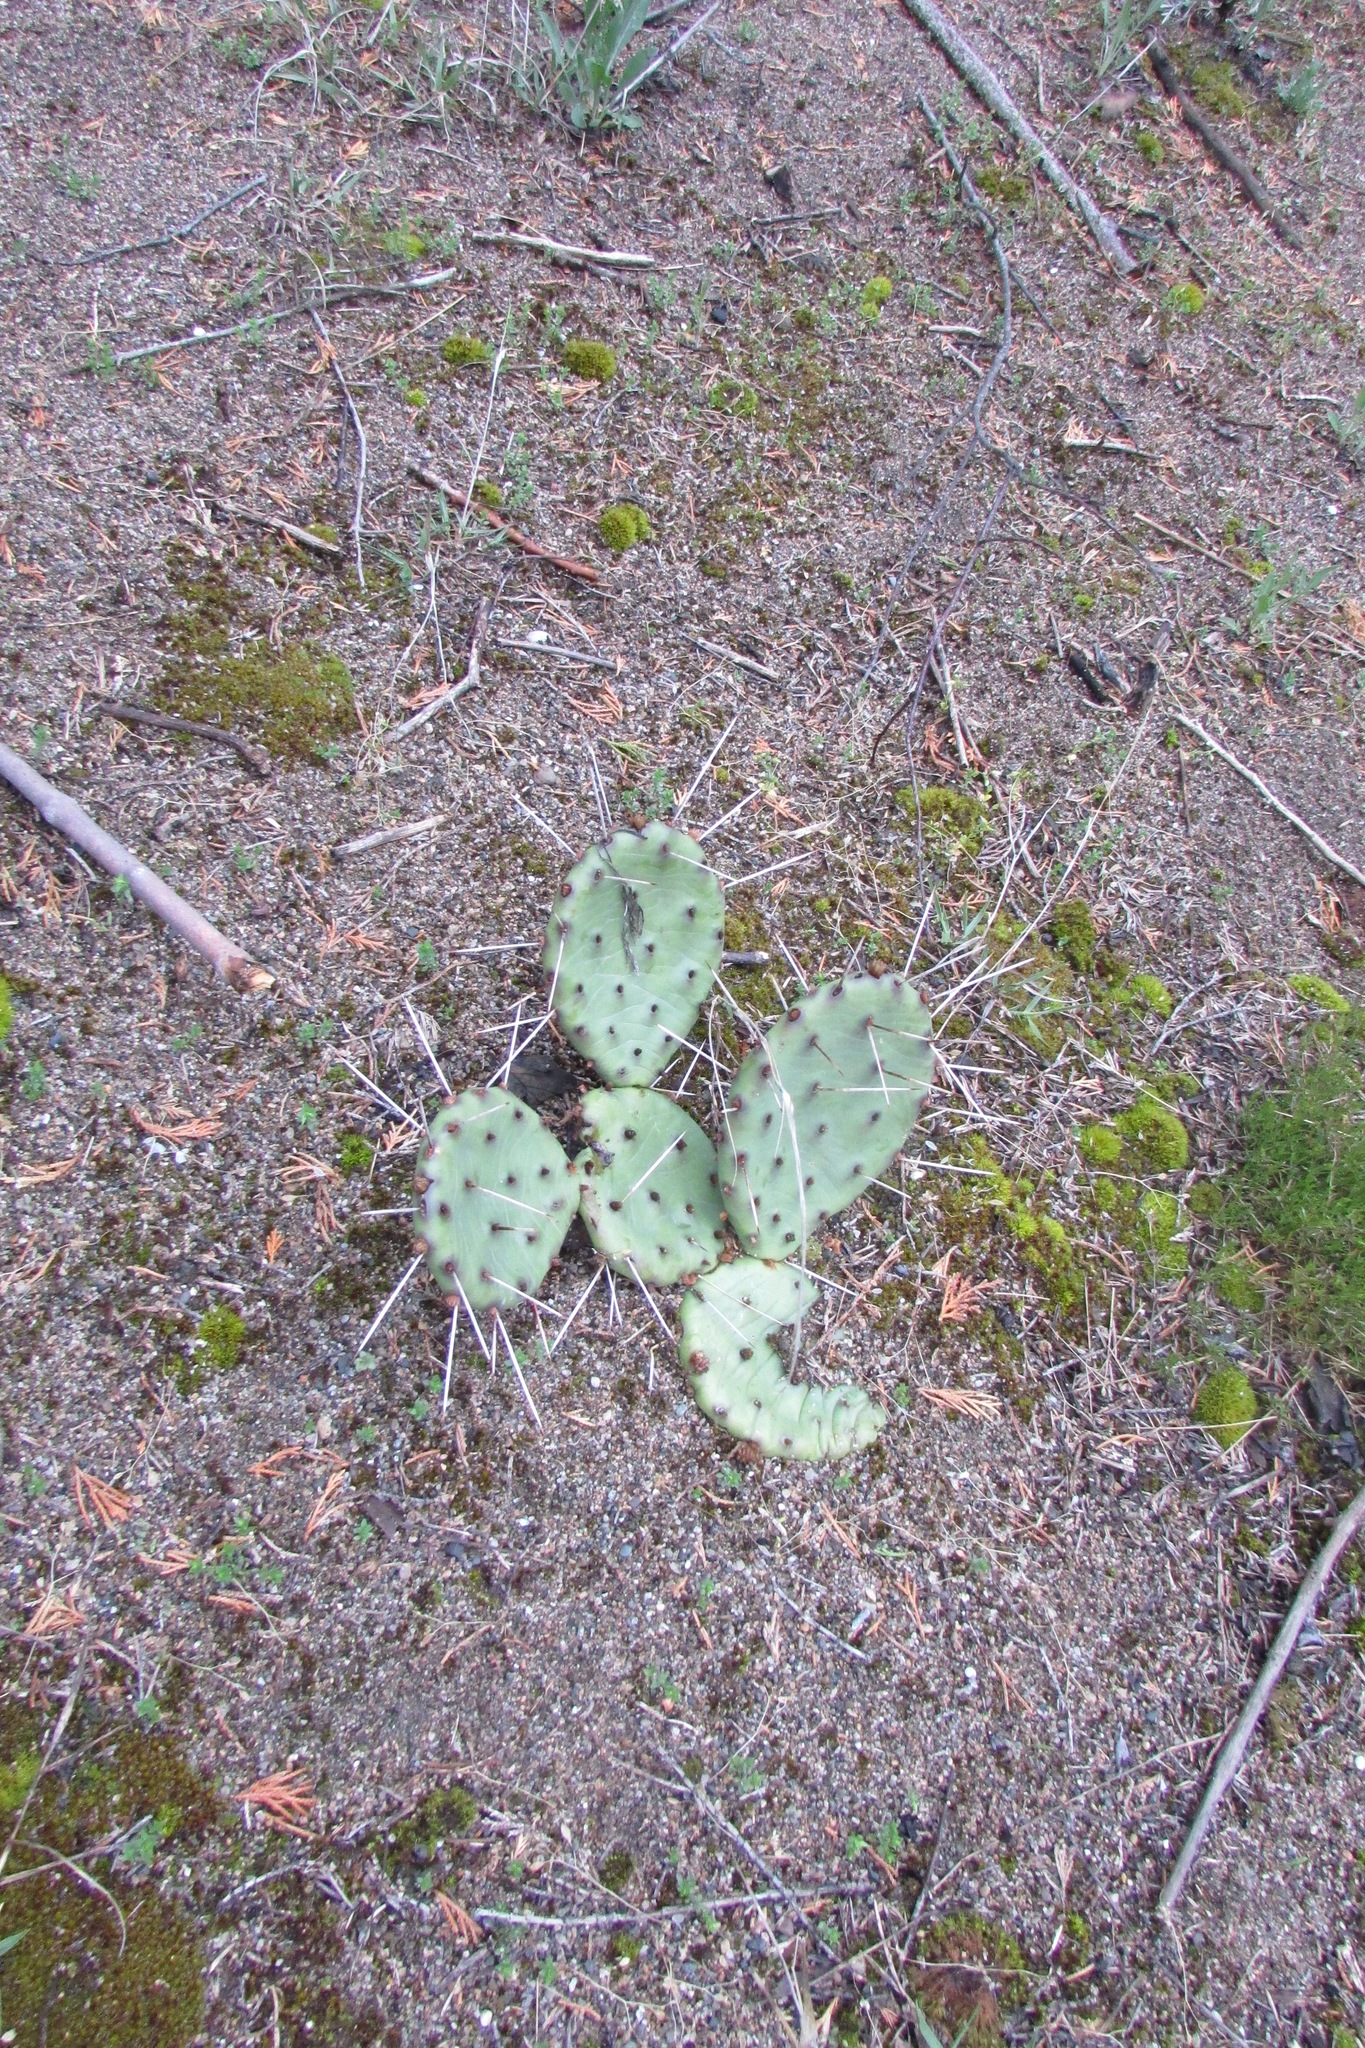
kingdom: Plantae
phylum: Tracheophyta
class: Magnoliopsida
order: Caryophyllales
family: Cactaceae
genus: Opuntia
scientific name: Opuntia humifusa
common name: Eastern prickly-pear
